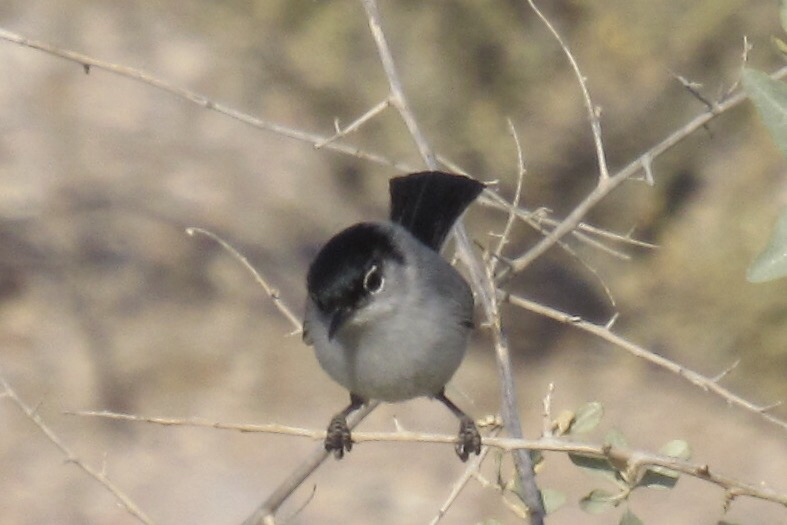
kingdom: Animalia
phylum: Chordata
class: Aves
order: Passeriformes
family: Polioptilidae
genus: Polioptila
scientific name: Polioptila melanura
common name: Black-tailed gnatcatcher
